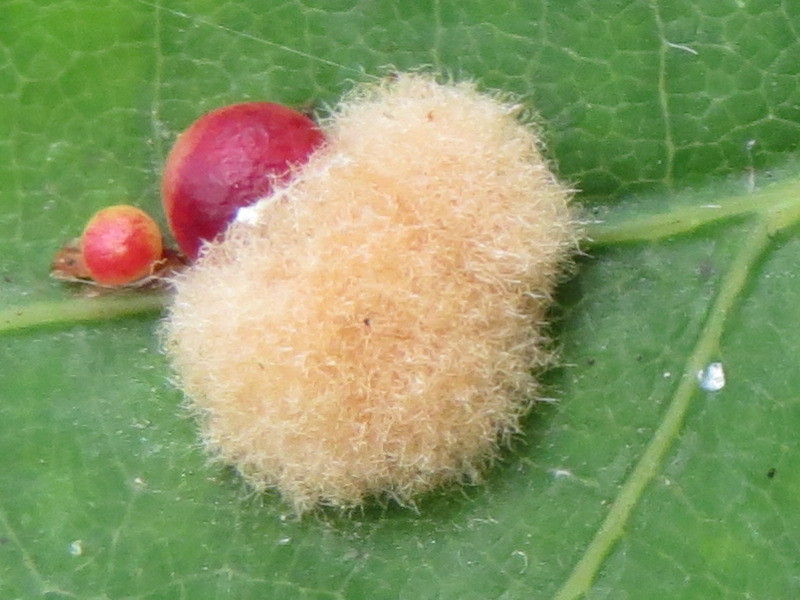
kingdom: Animalia
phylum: Arthropoda
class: Insecta
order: Hymenoptera
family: Cynipidae
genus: Callirhytis
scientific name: Callirhytis
